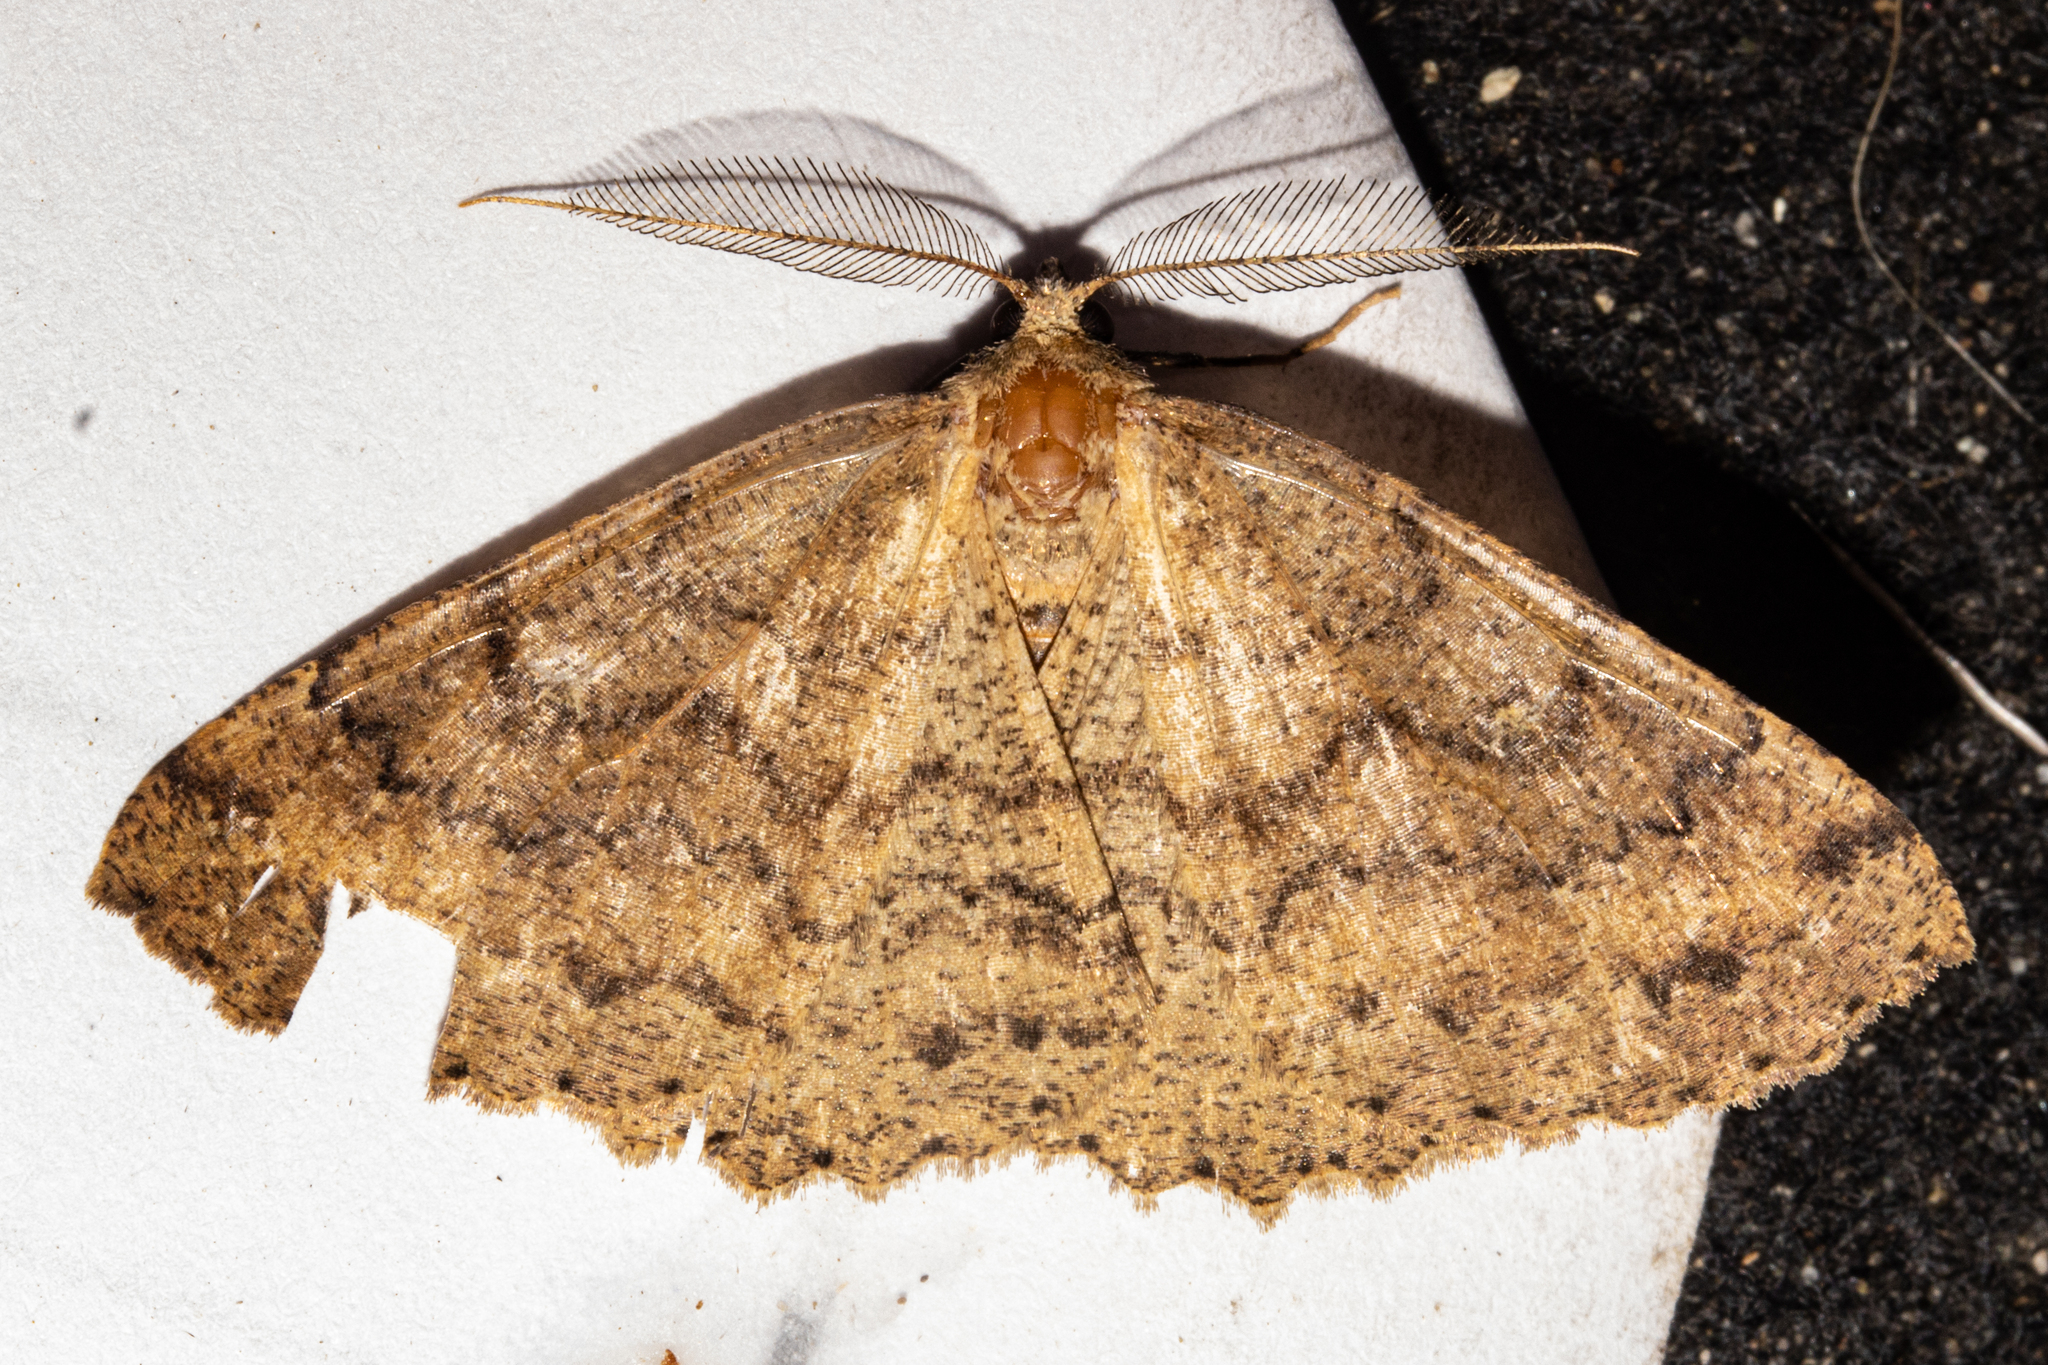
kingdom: Animalia
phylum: Arthropoda
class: Insecta
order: Lepidoptera
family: Geometridae
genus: Cleora
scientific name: Cleora scriptaria
